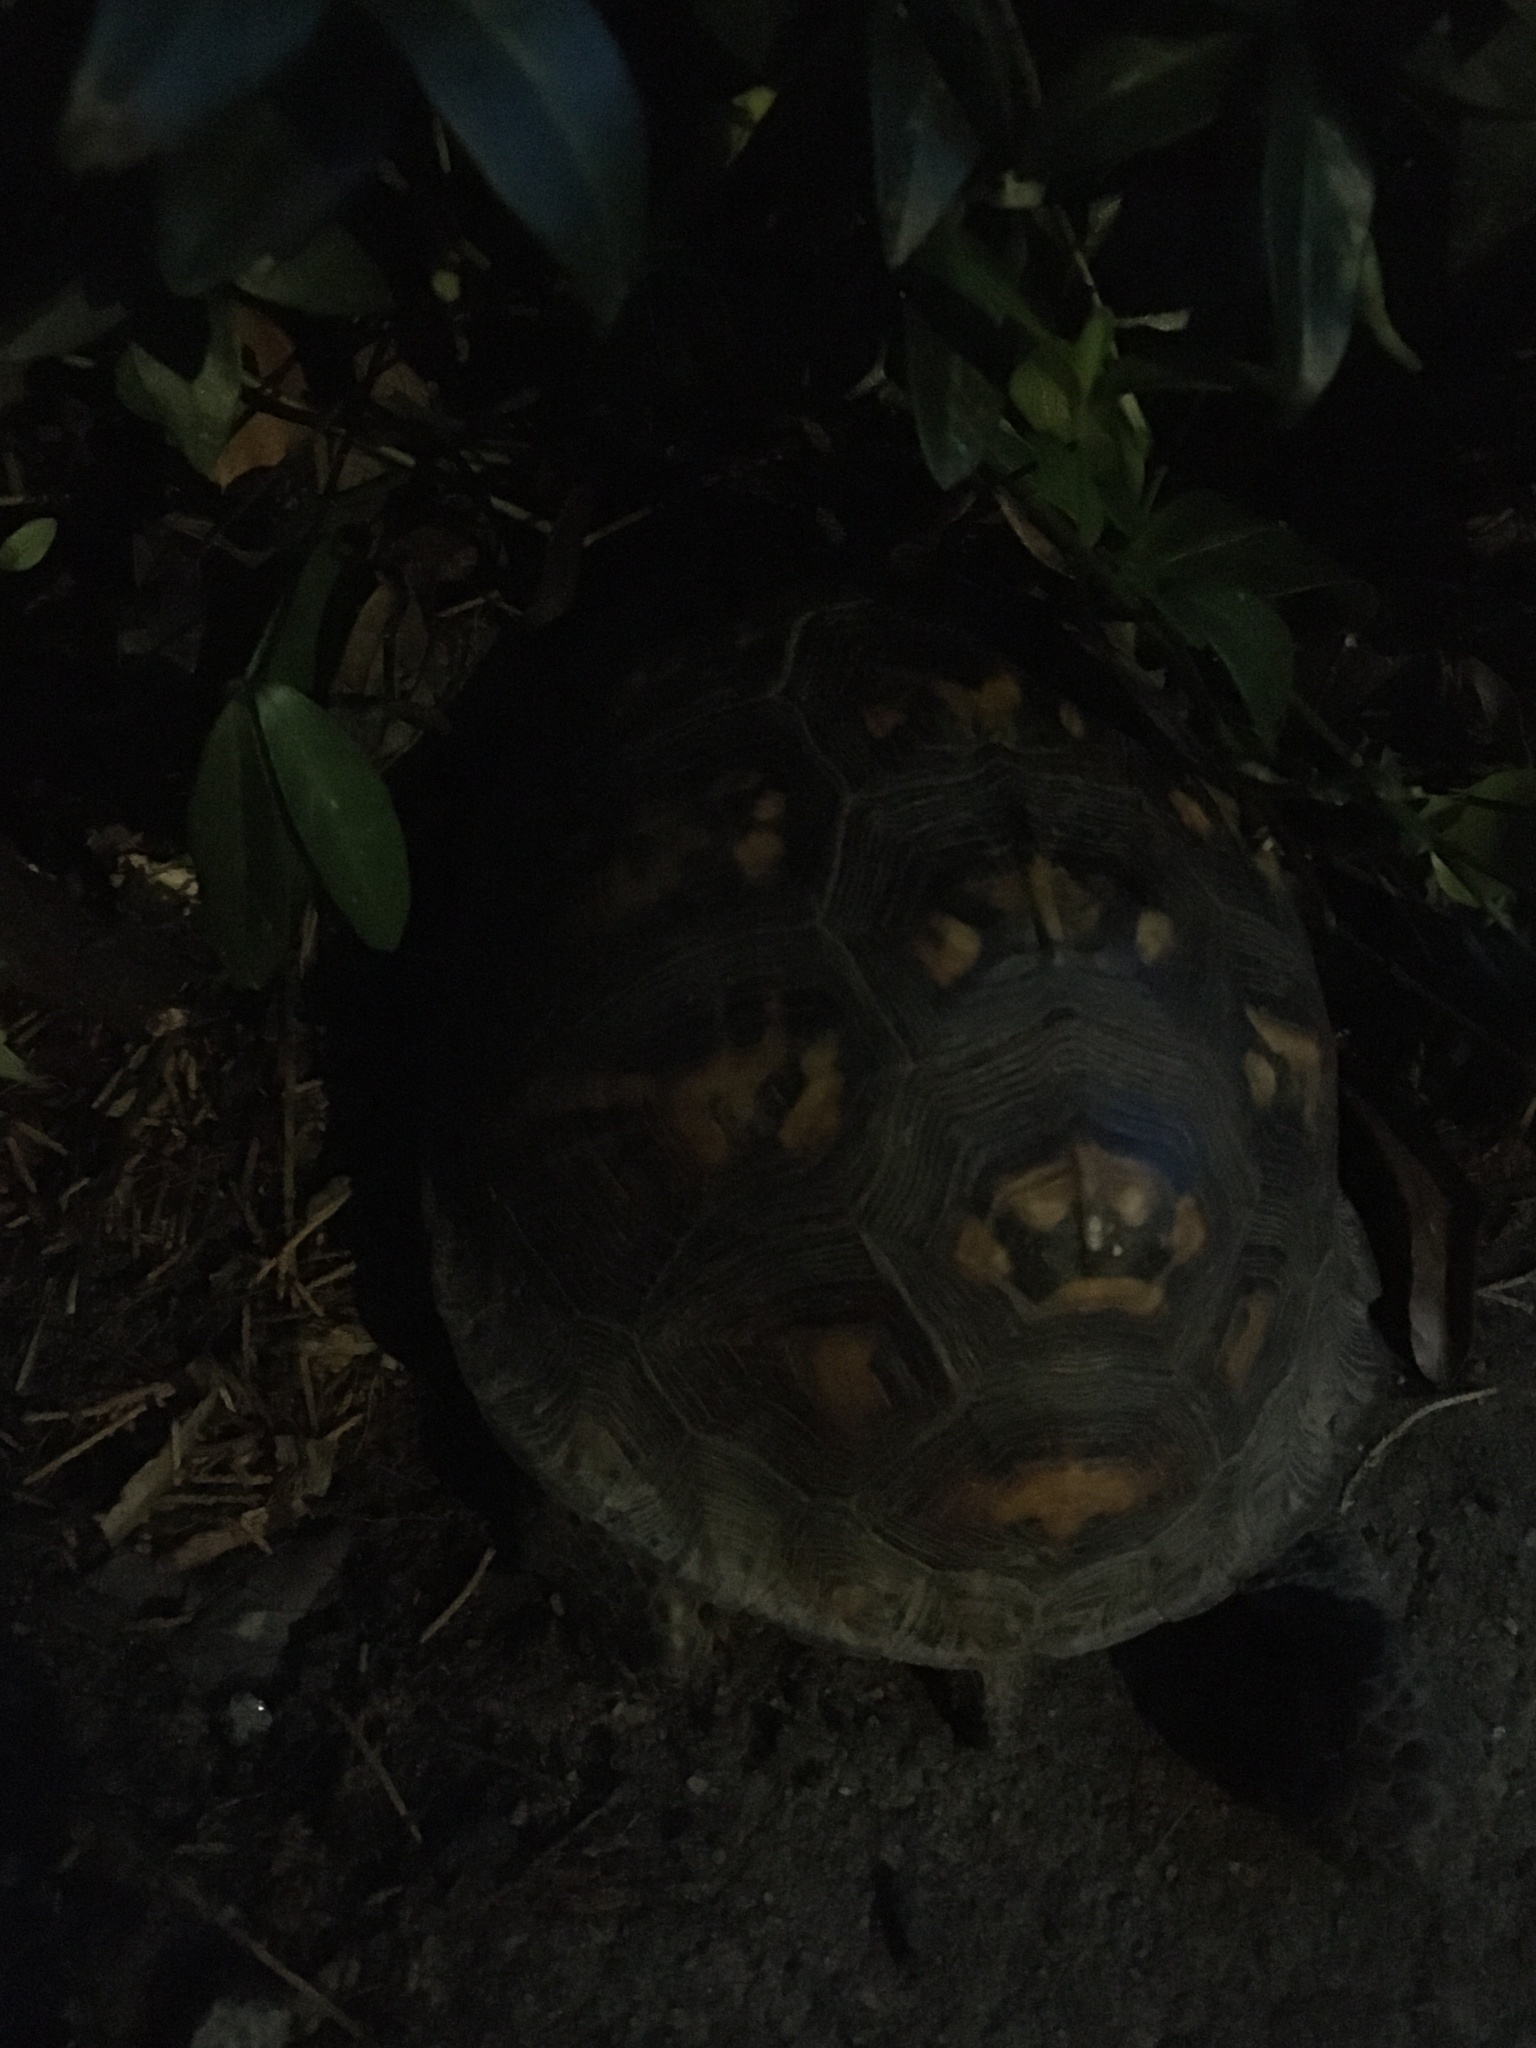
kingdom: Animalia
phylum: Chordata
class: Testudines
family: Emydidae
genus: Terrapene
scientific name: Terrapene carolina
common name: Common box turtle
